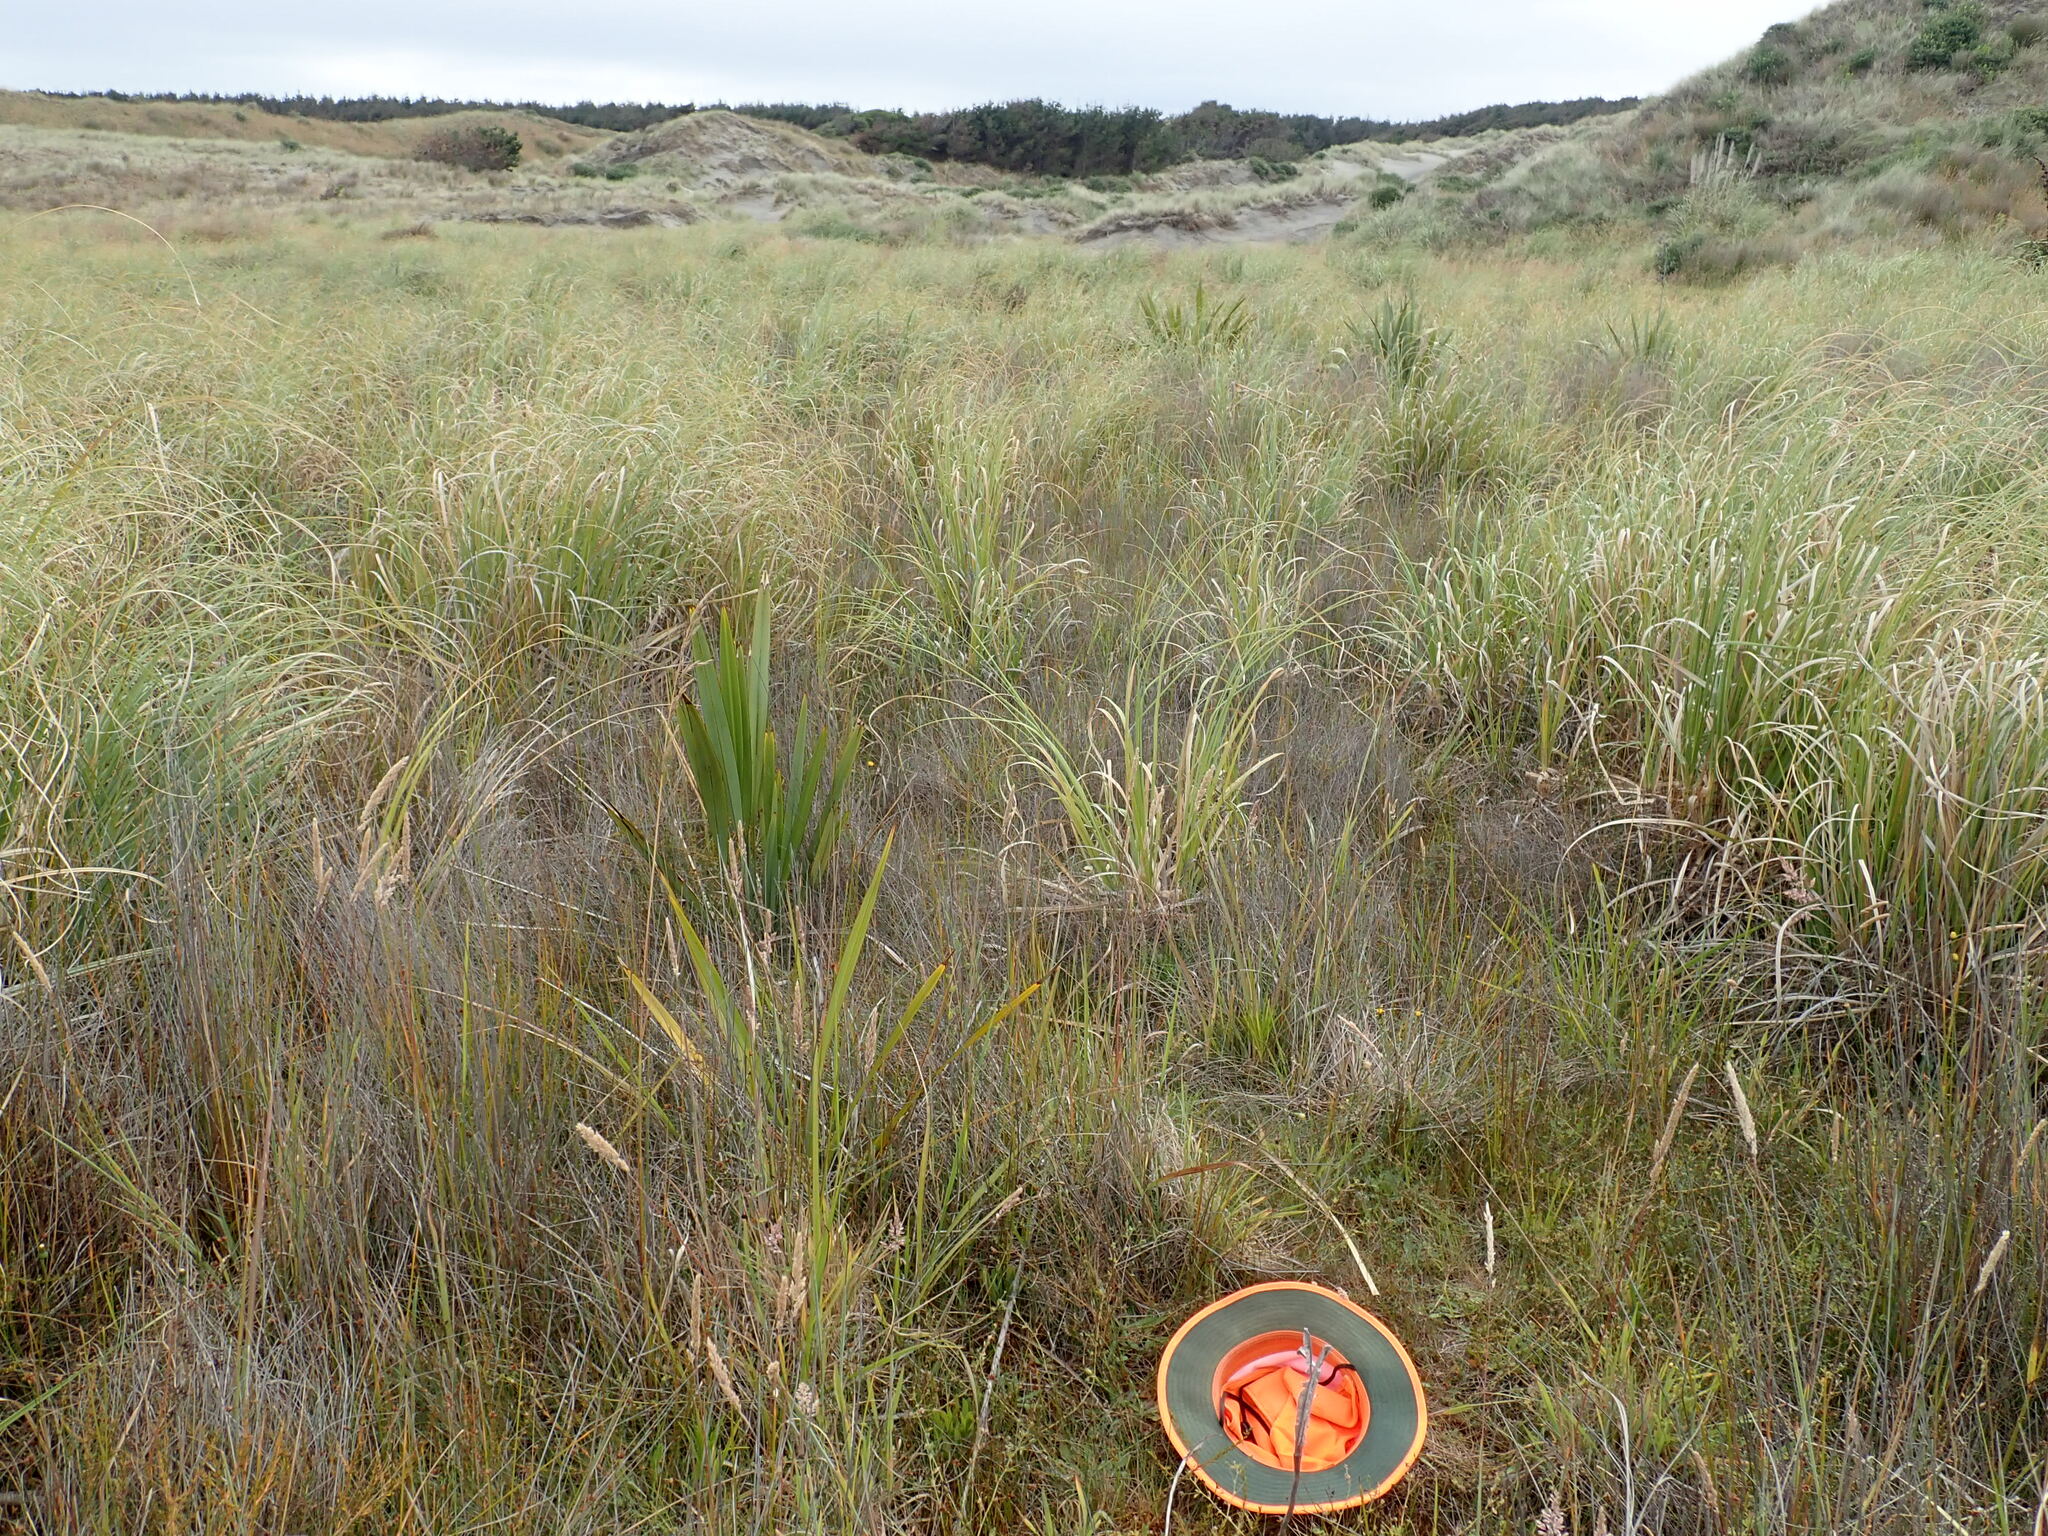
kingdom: Plantae
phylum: Tracheophyta
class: Liliopsida
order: Asparagales
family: Asphodelaceae
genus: Phormium
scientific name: Phormium tenax
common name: New zealand flax
